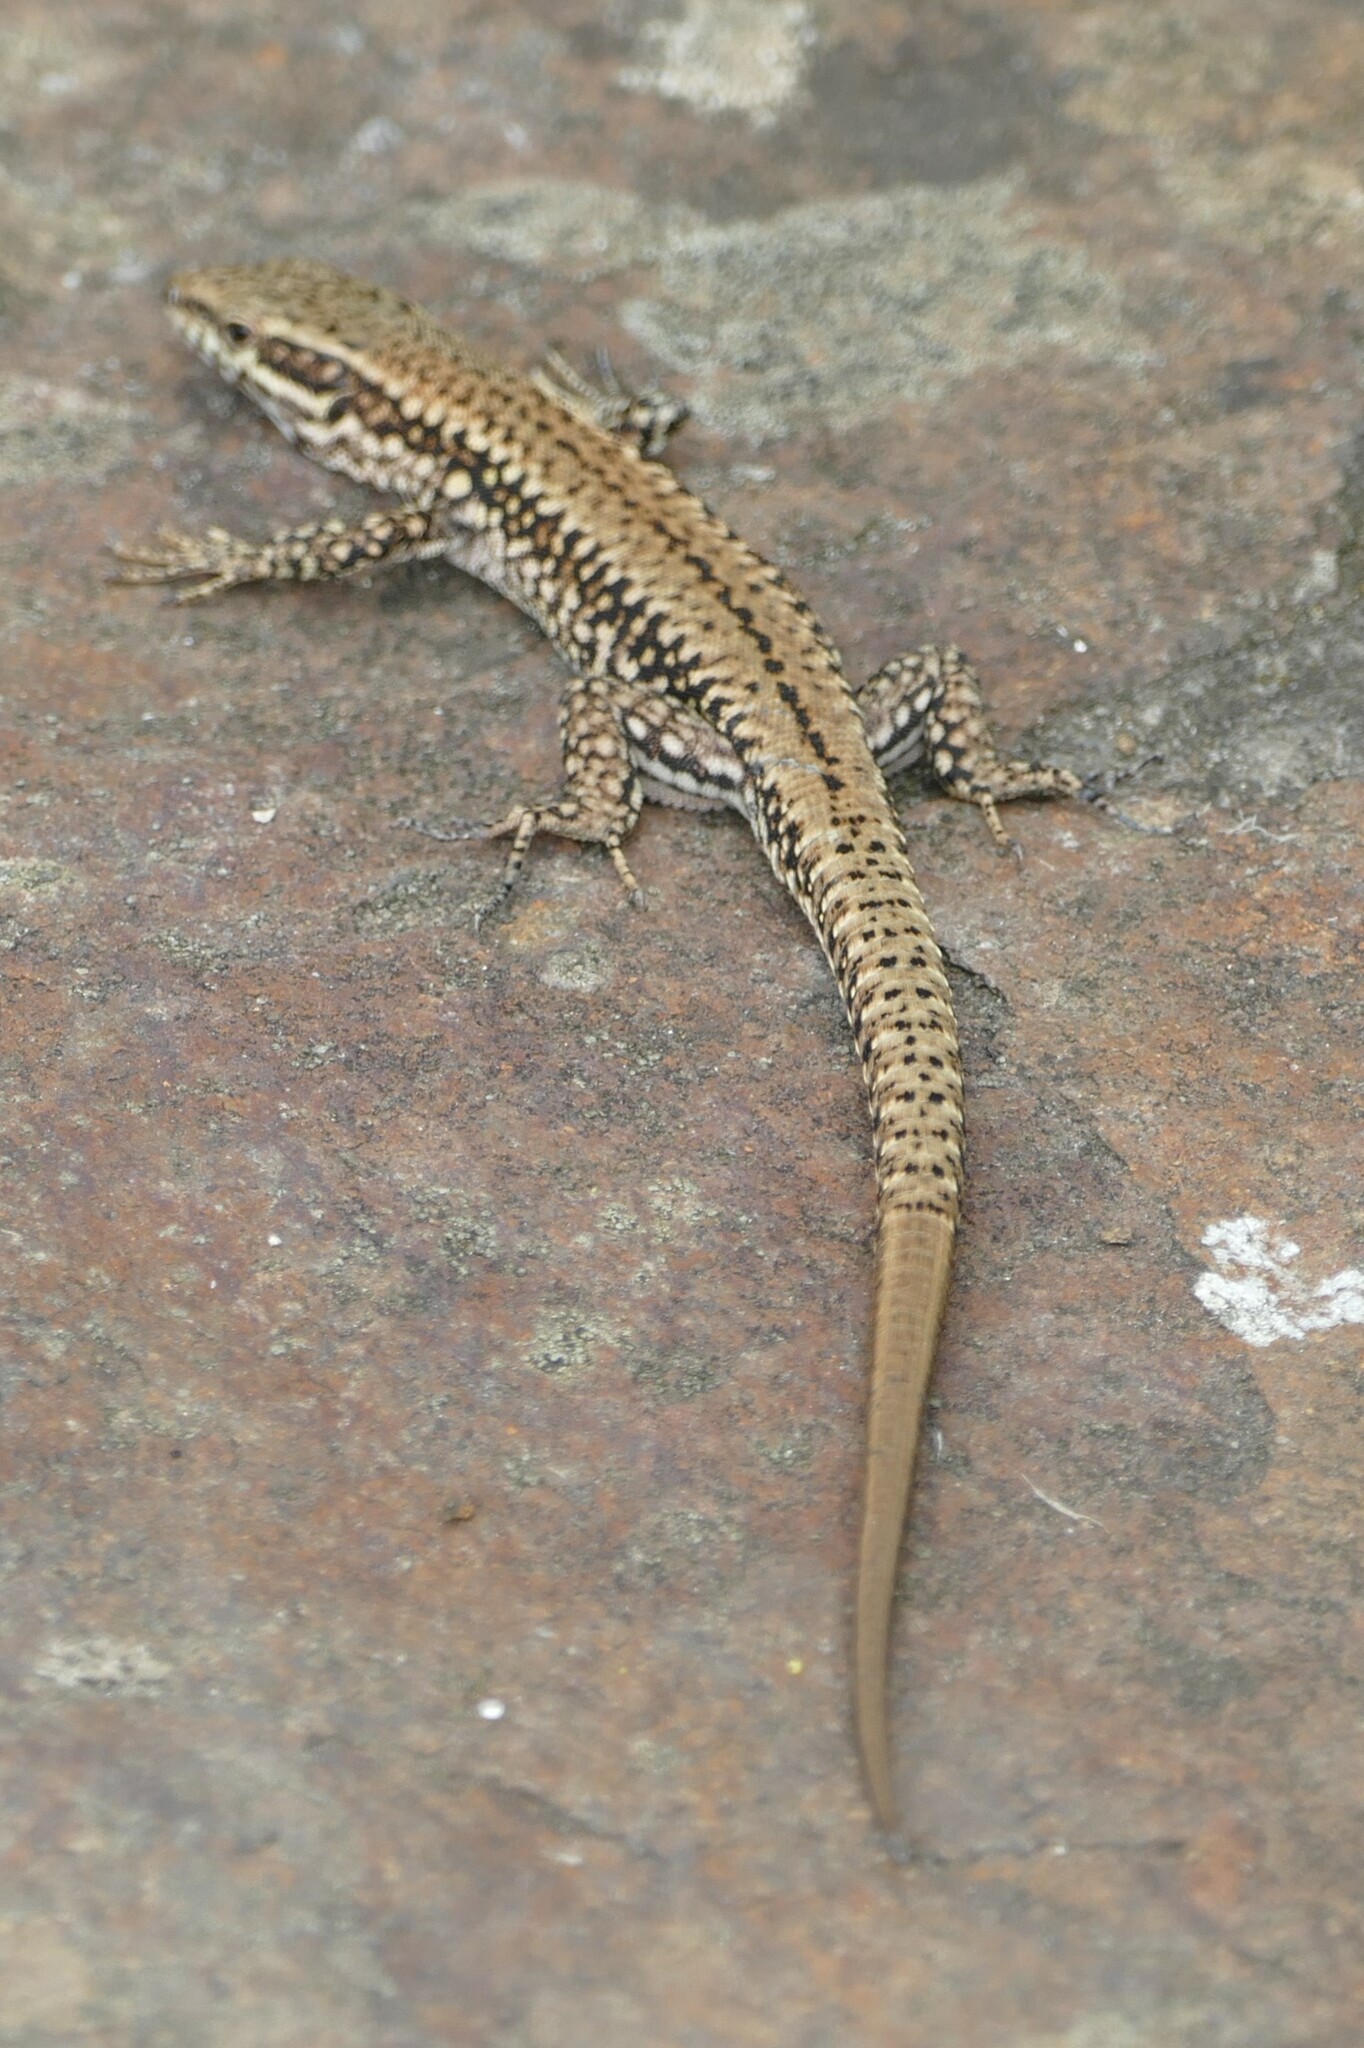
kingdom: Animalia
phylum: Chordata
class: Squamata
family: Lacertidae
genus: Podarcis
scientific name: Podarcis muralis
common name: Common wall lizard
